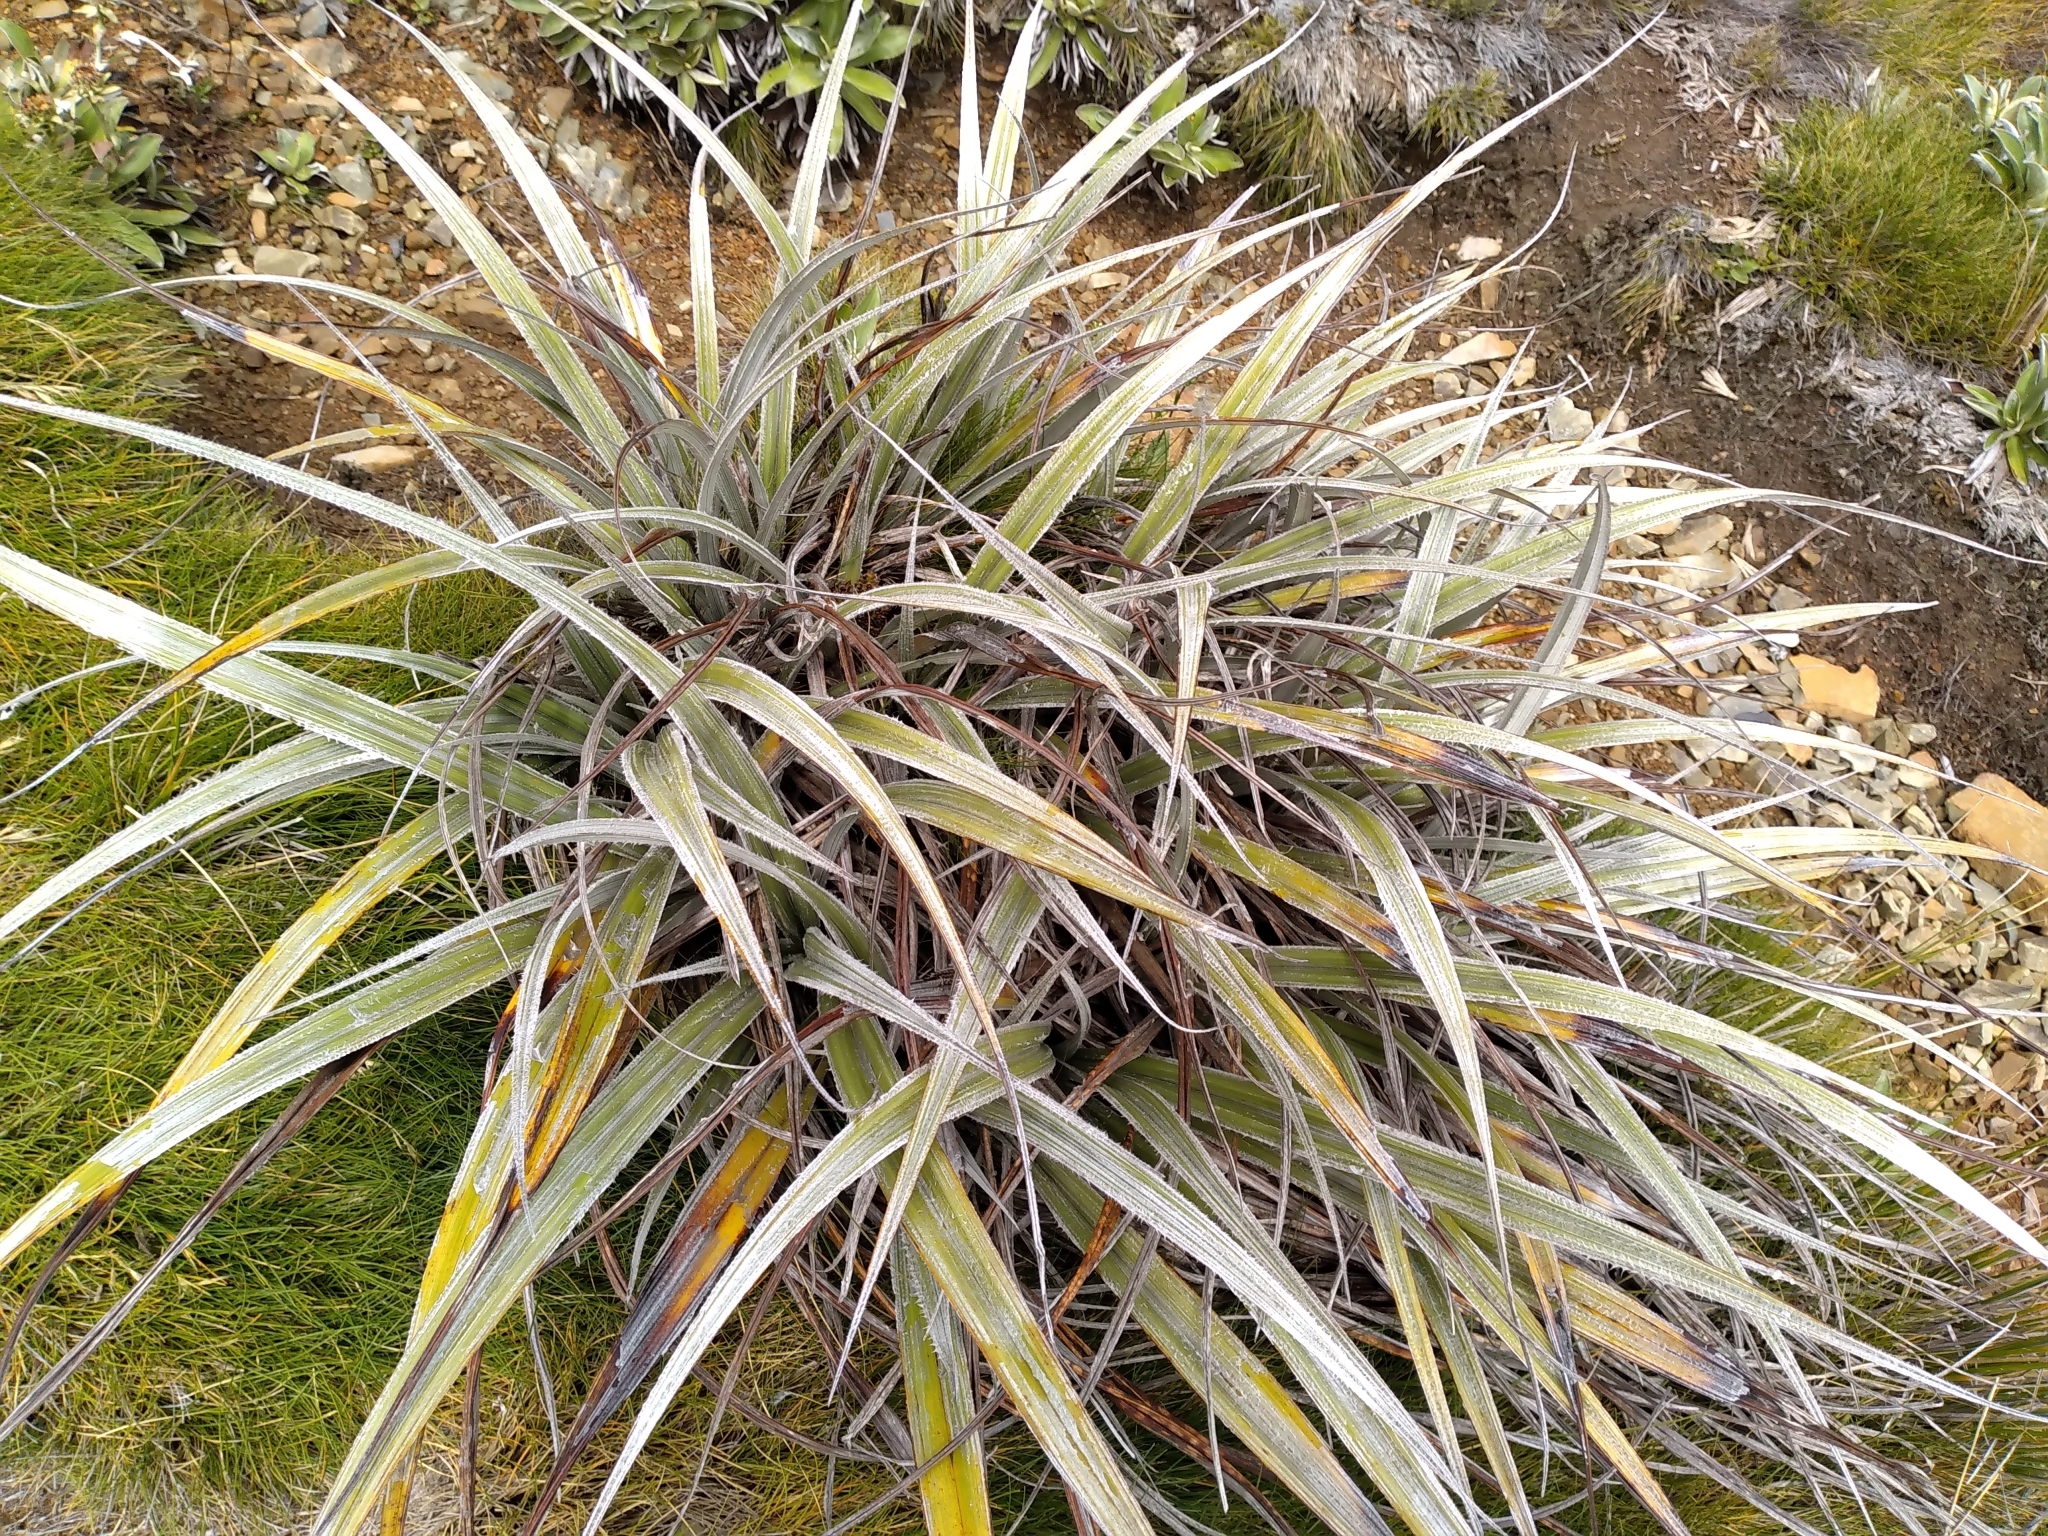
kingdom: Plantae
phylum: Tracheophyta
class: Liliopsida
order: Asparagales
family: Asteliaceae
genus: Astelia
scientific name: Astelia nervosa
